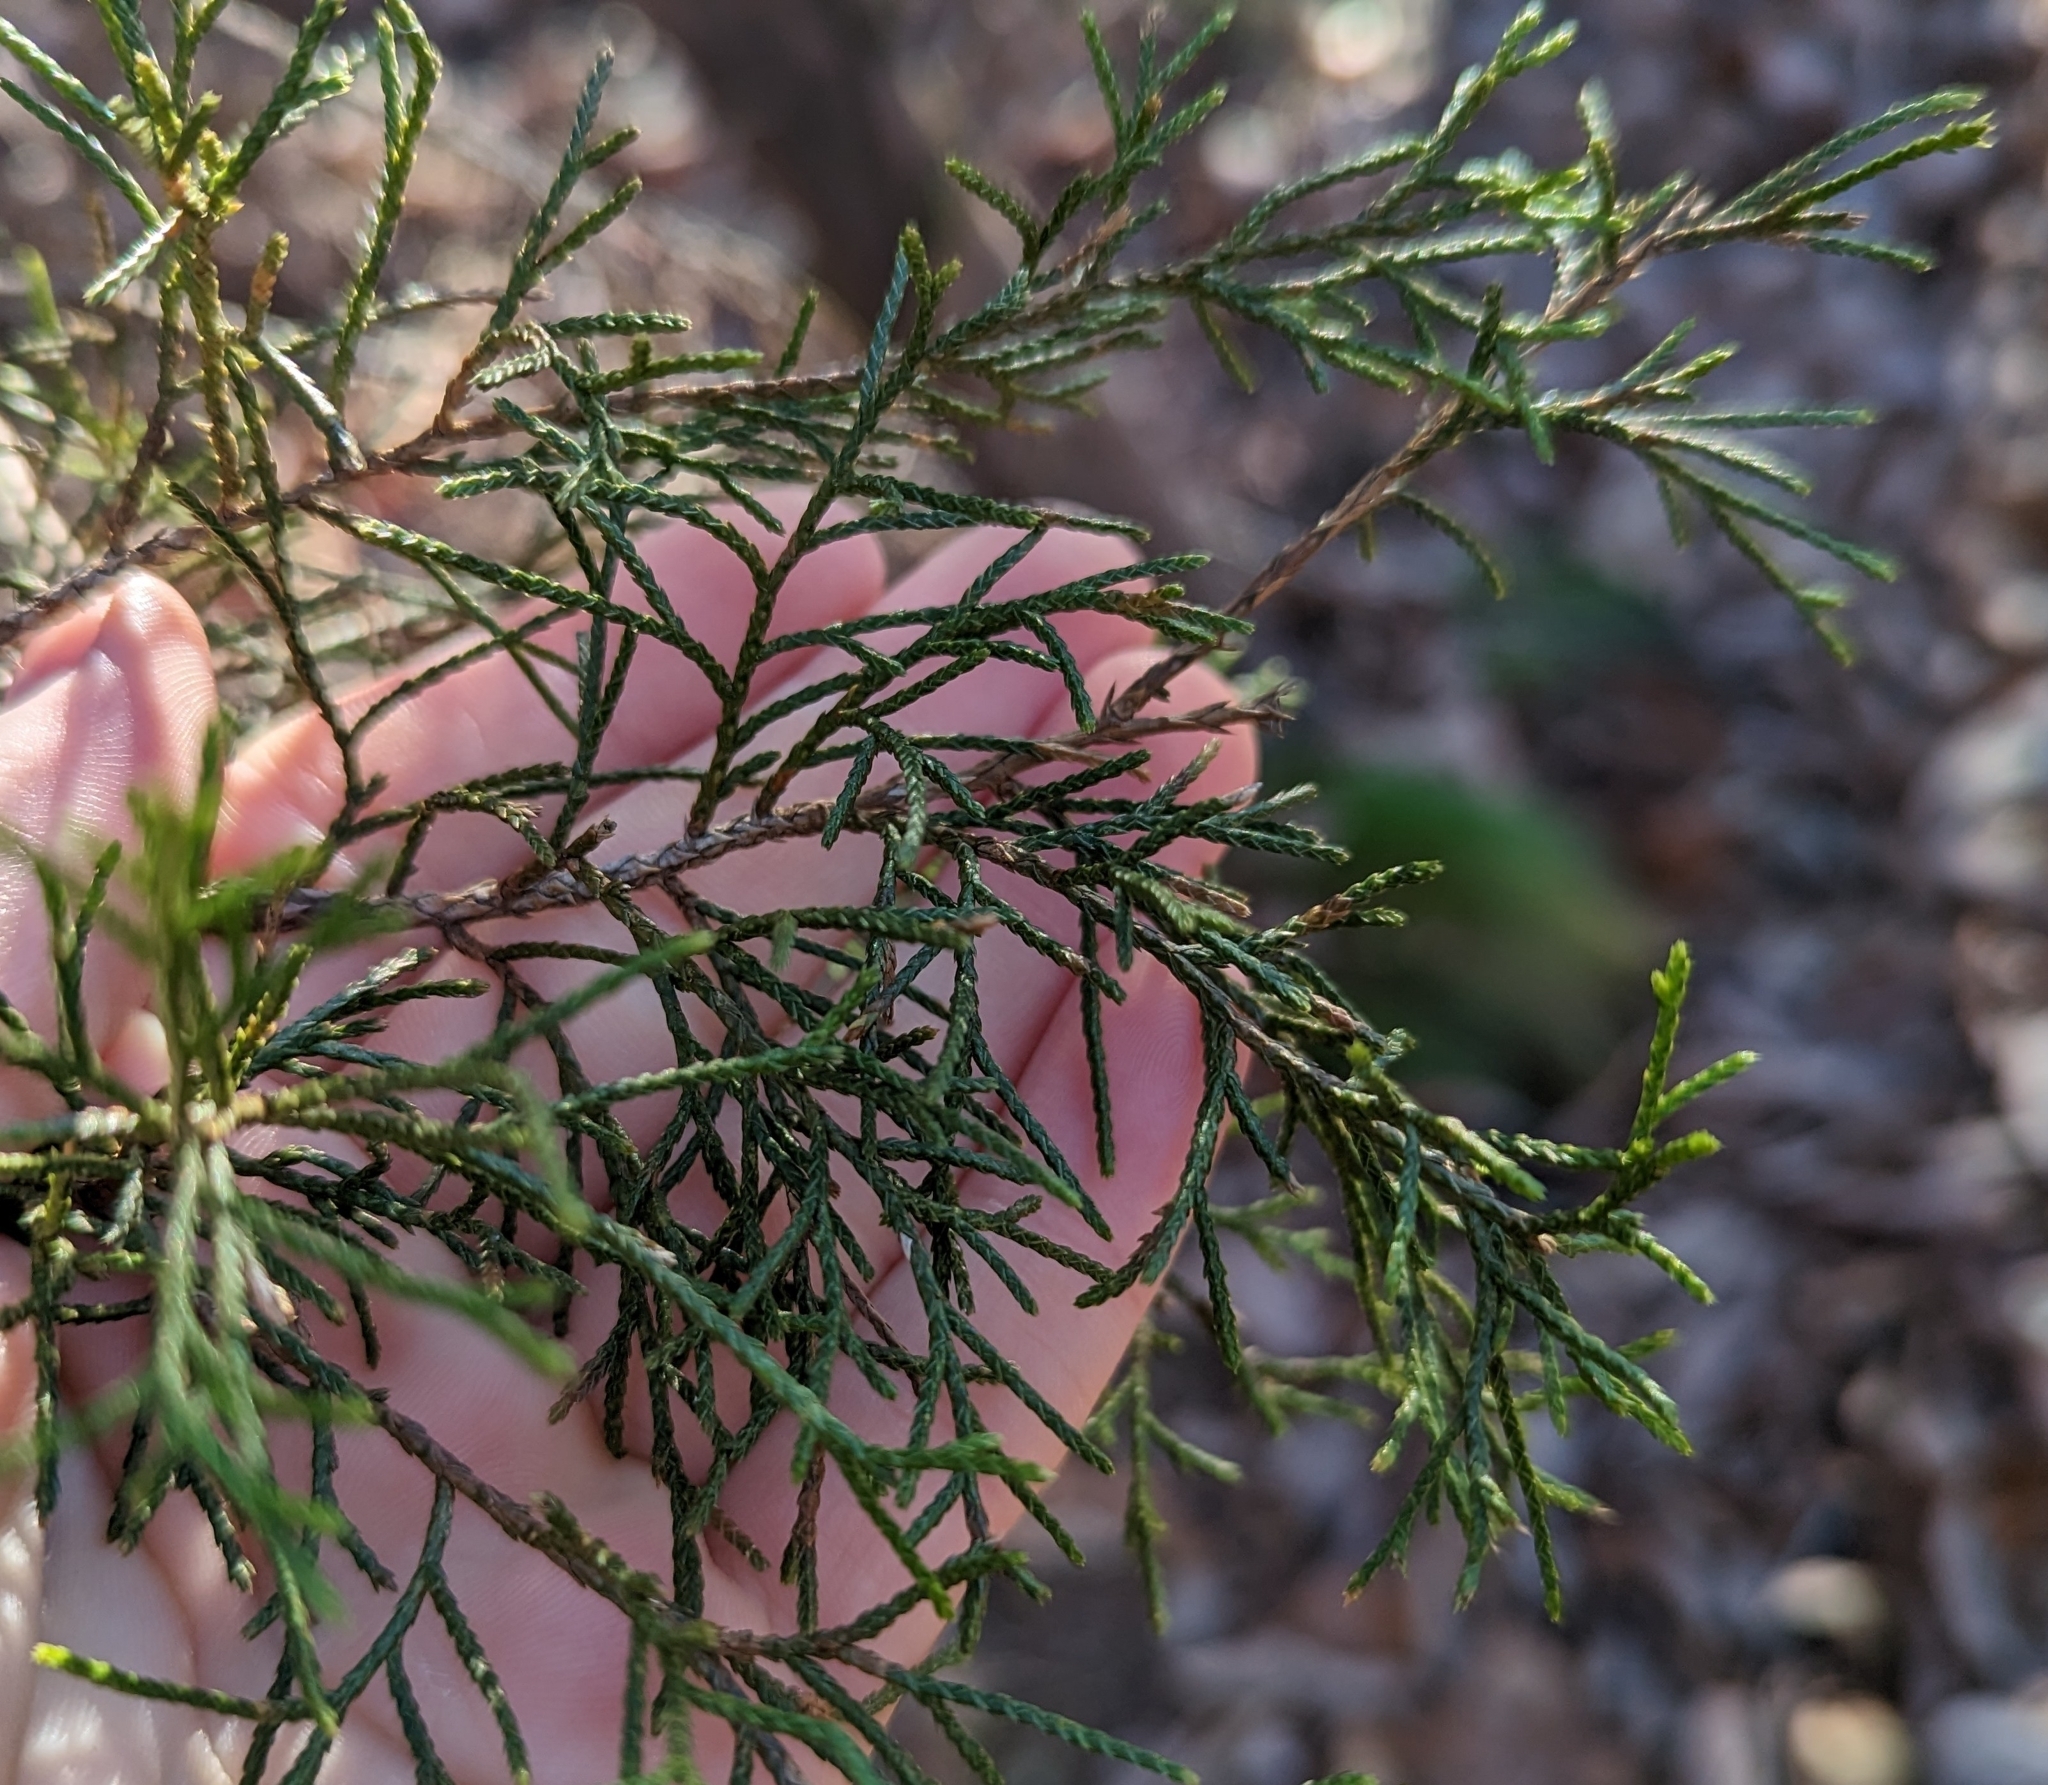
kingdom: Plantae
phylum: Tracheophyta
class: Pinopsida
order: Pinales
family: Cupressaceae
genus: Juniperus
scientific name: Juniperus virginiana
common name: Red juniper
